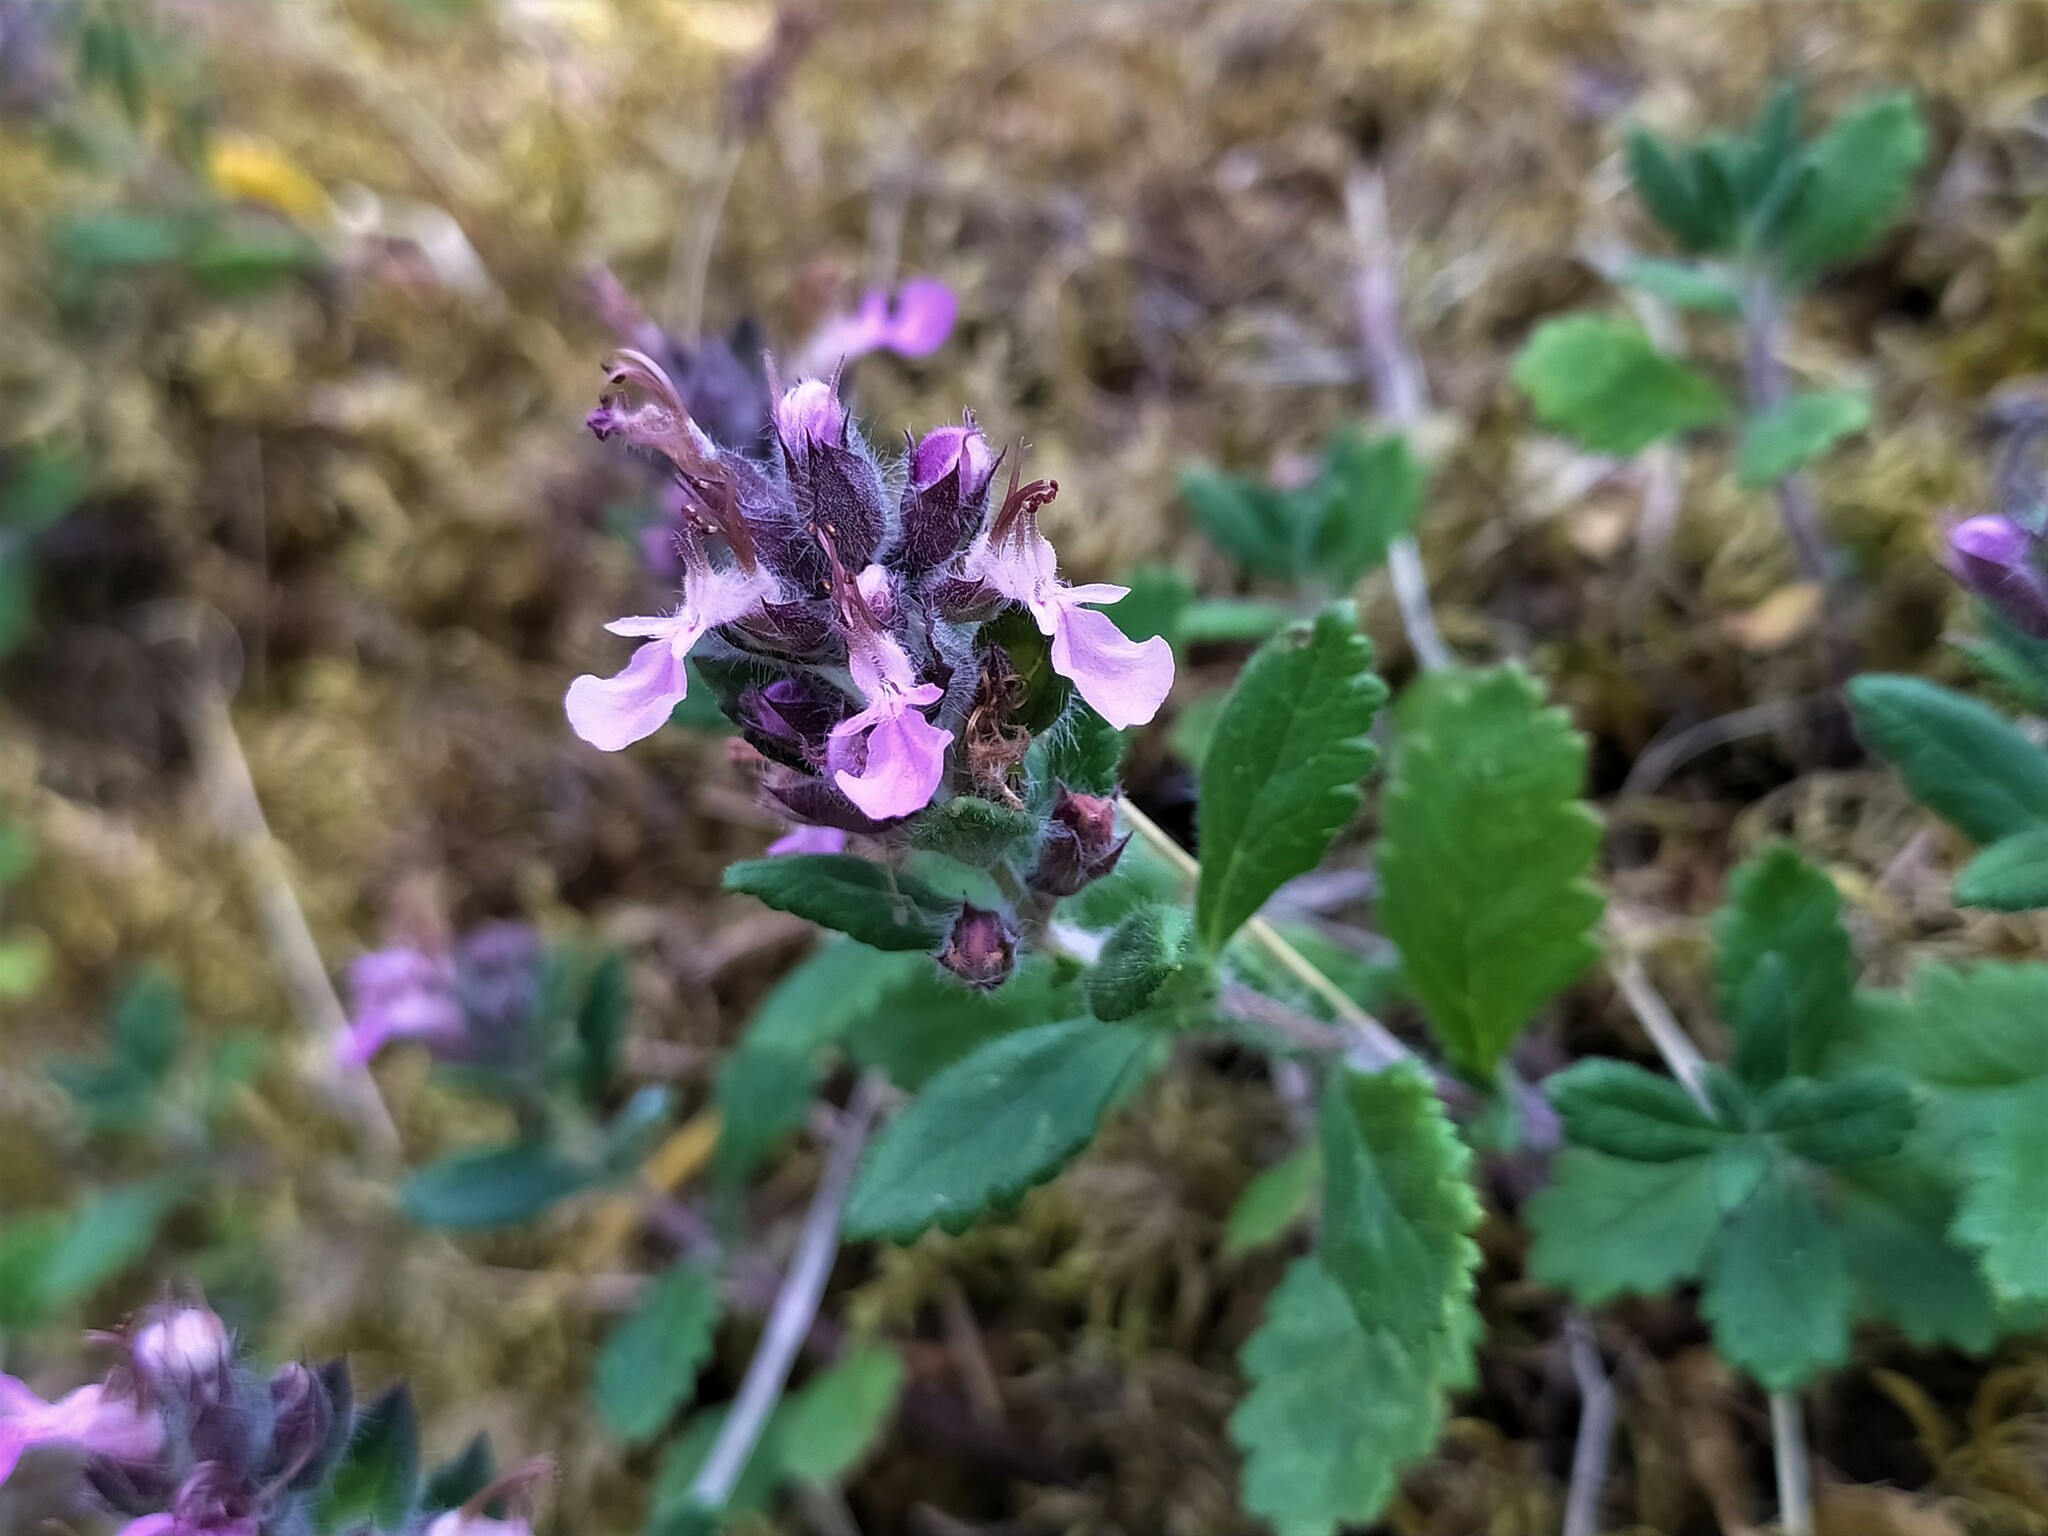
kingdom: Plantae
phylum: Tracheophyta
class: Magnoliopsida
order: Lamiales
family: Lamiaceae
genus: Teucrium
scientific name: Teucrium chamaedrys
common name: Wall germander
